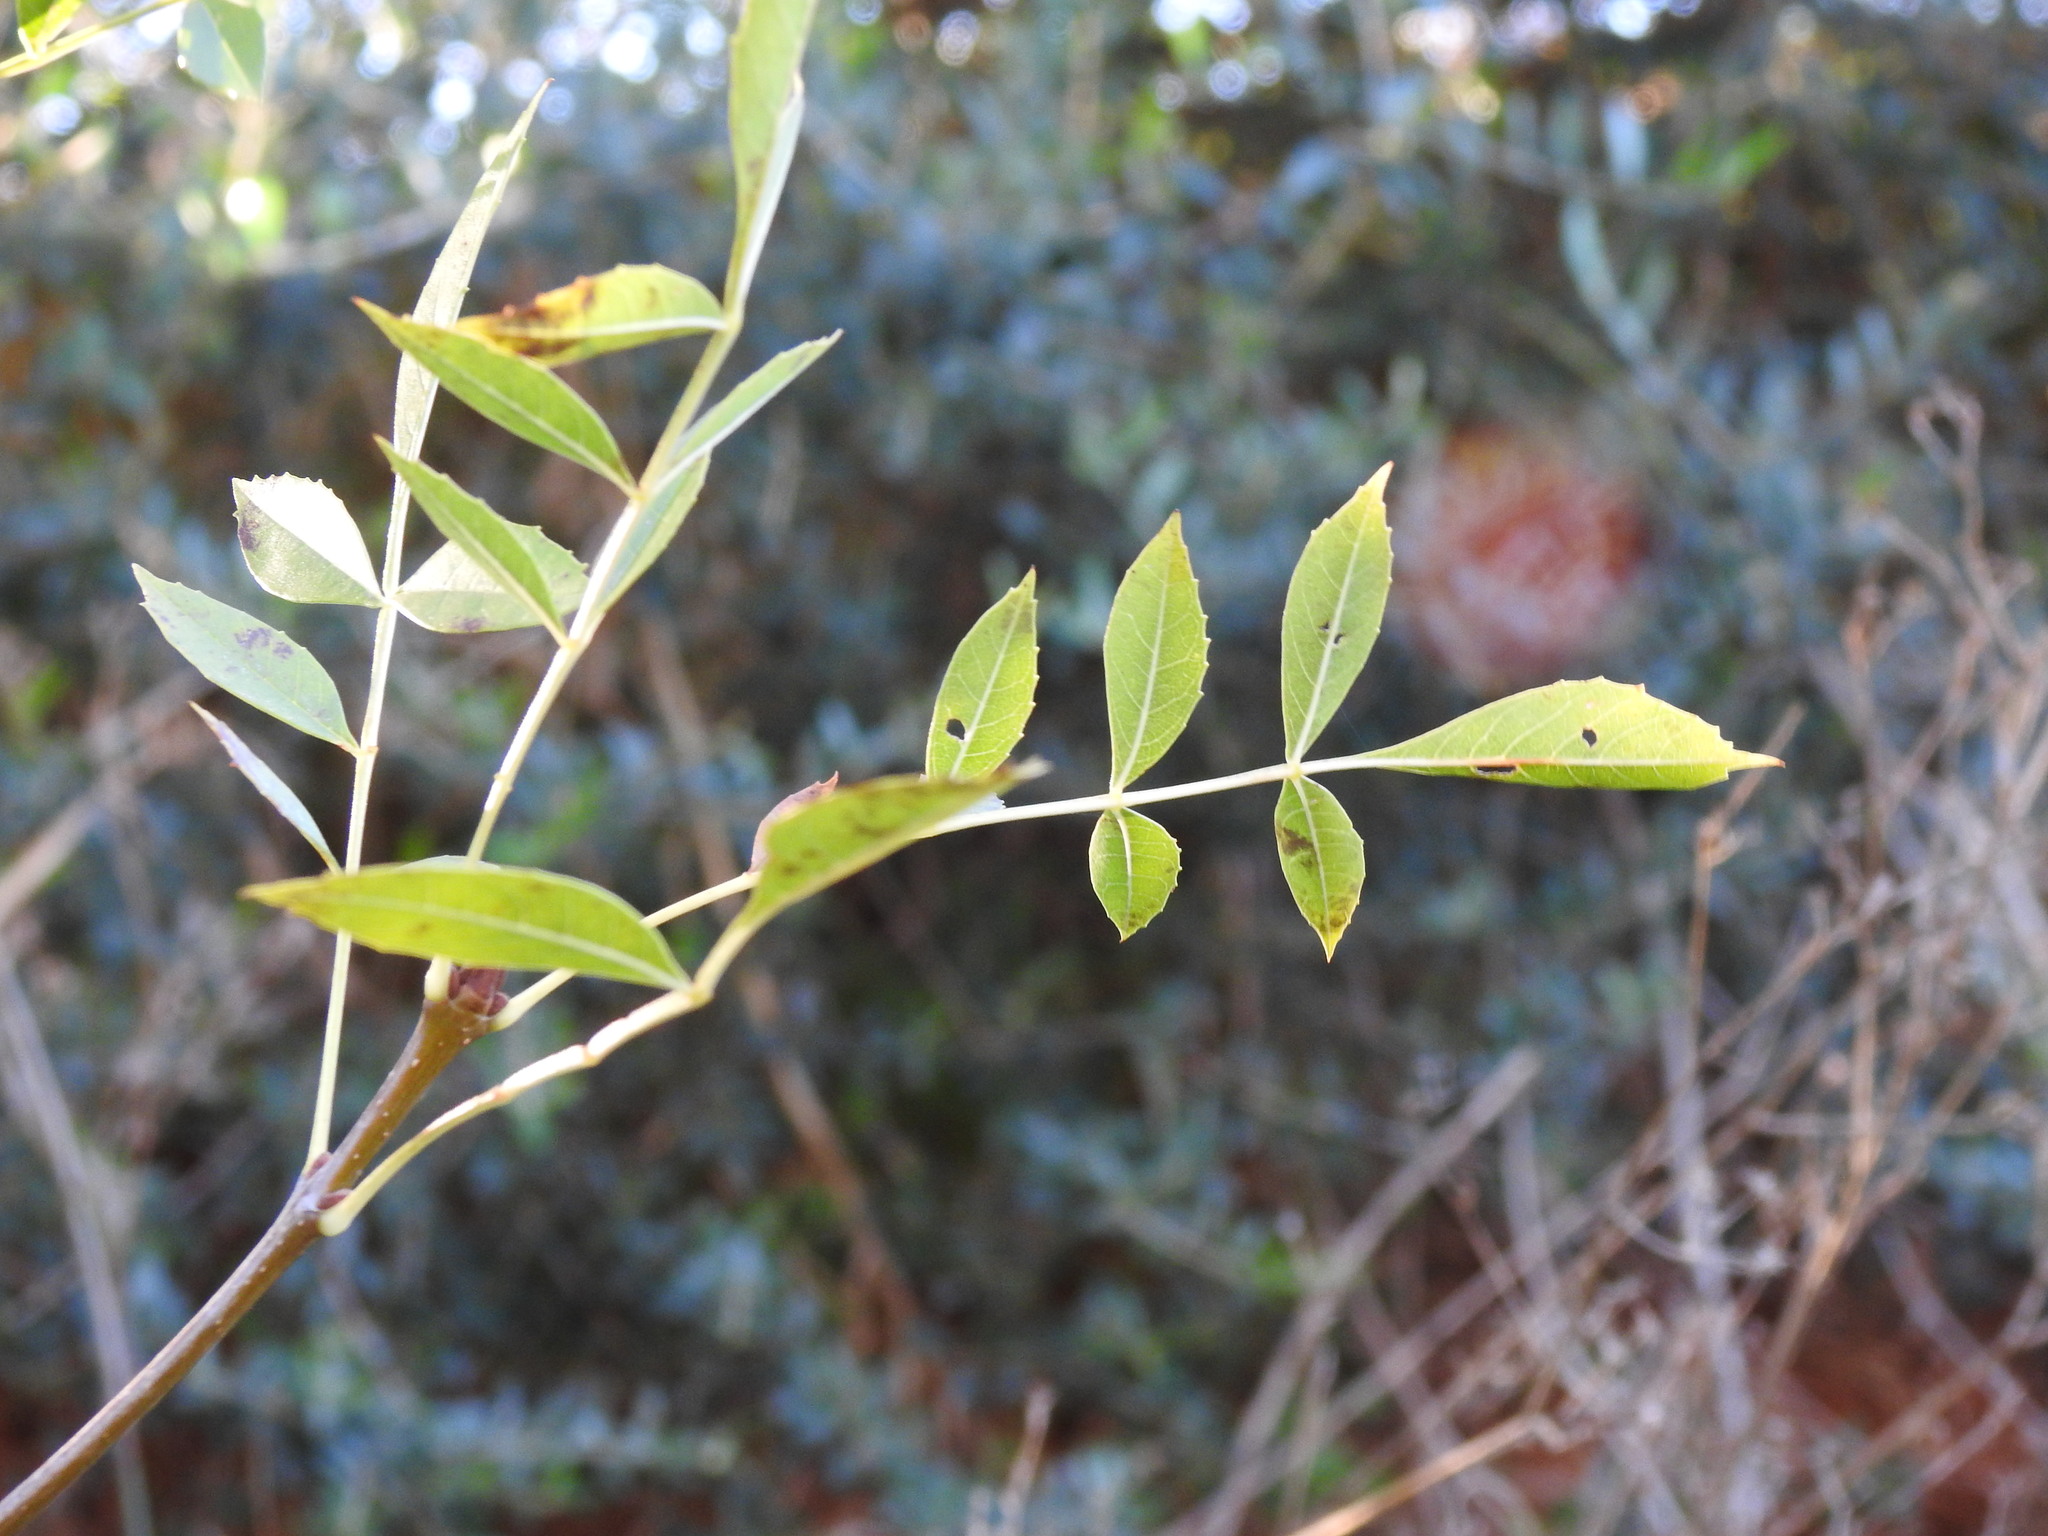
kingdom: Plantae
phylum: Tracheophyta
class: Magnoliopsida
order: Lamiales
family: Oleaceae
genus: Fraxinus
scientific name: Fraxinus angustifolia
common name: Narrow-leafed ash
